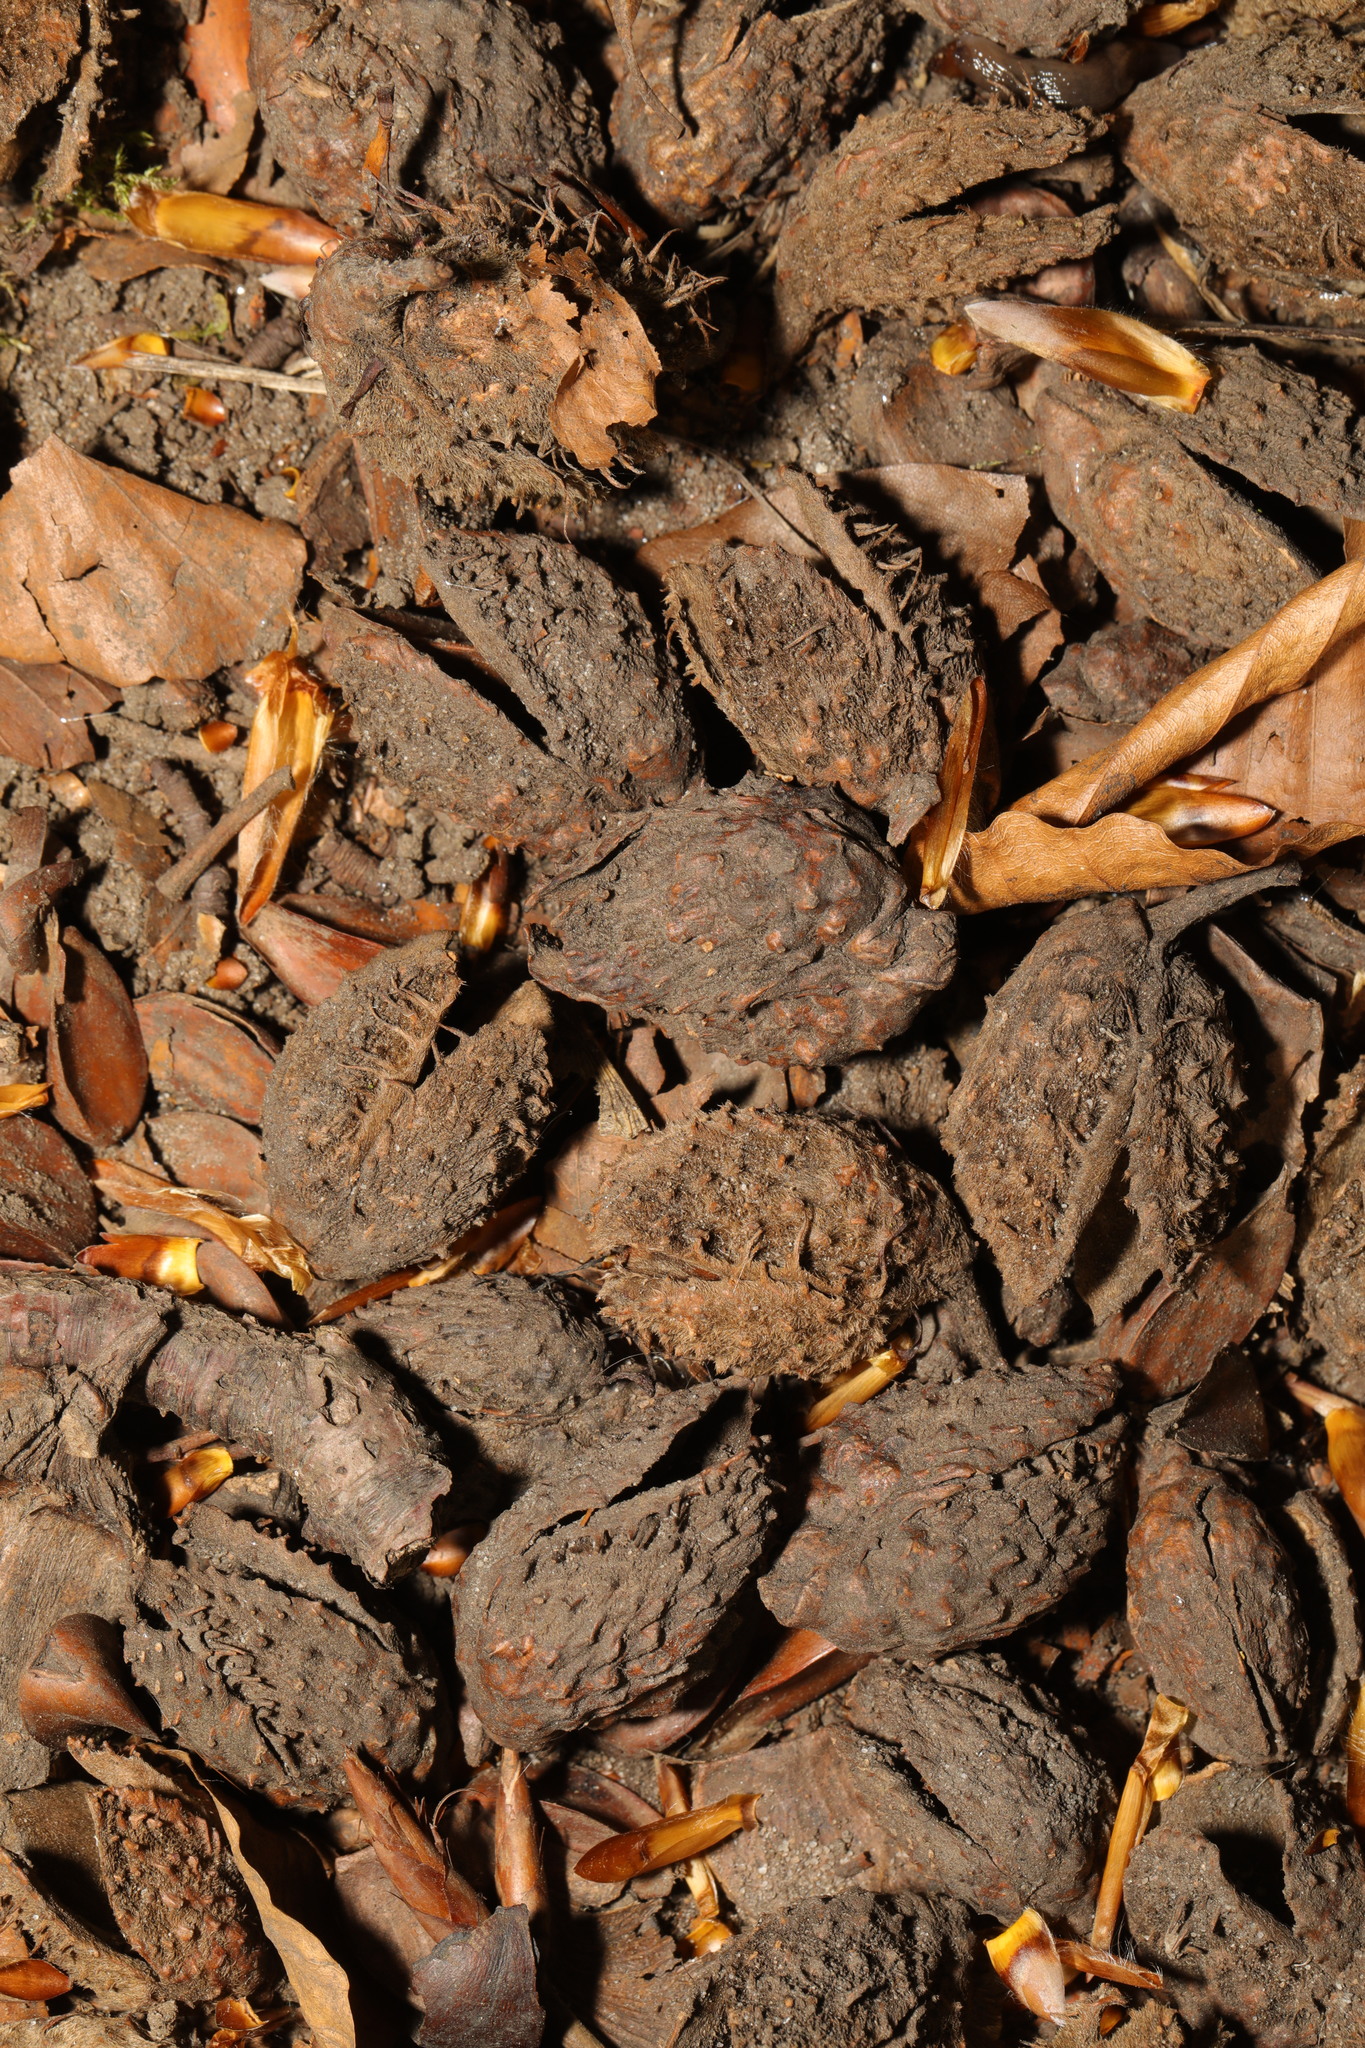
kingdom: Plantae
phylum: Tracheophyta
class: Magnoliopsida
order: Fagales
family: Fagaceae
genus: Fagus
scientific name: Fagus sylvatica
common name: Beech
